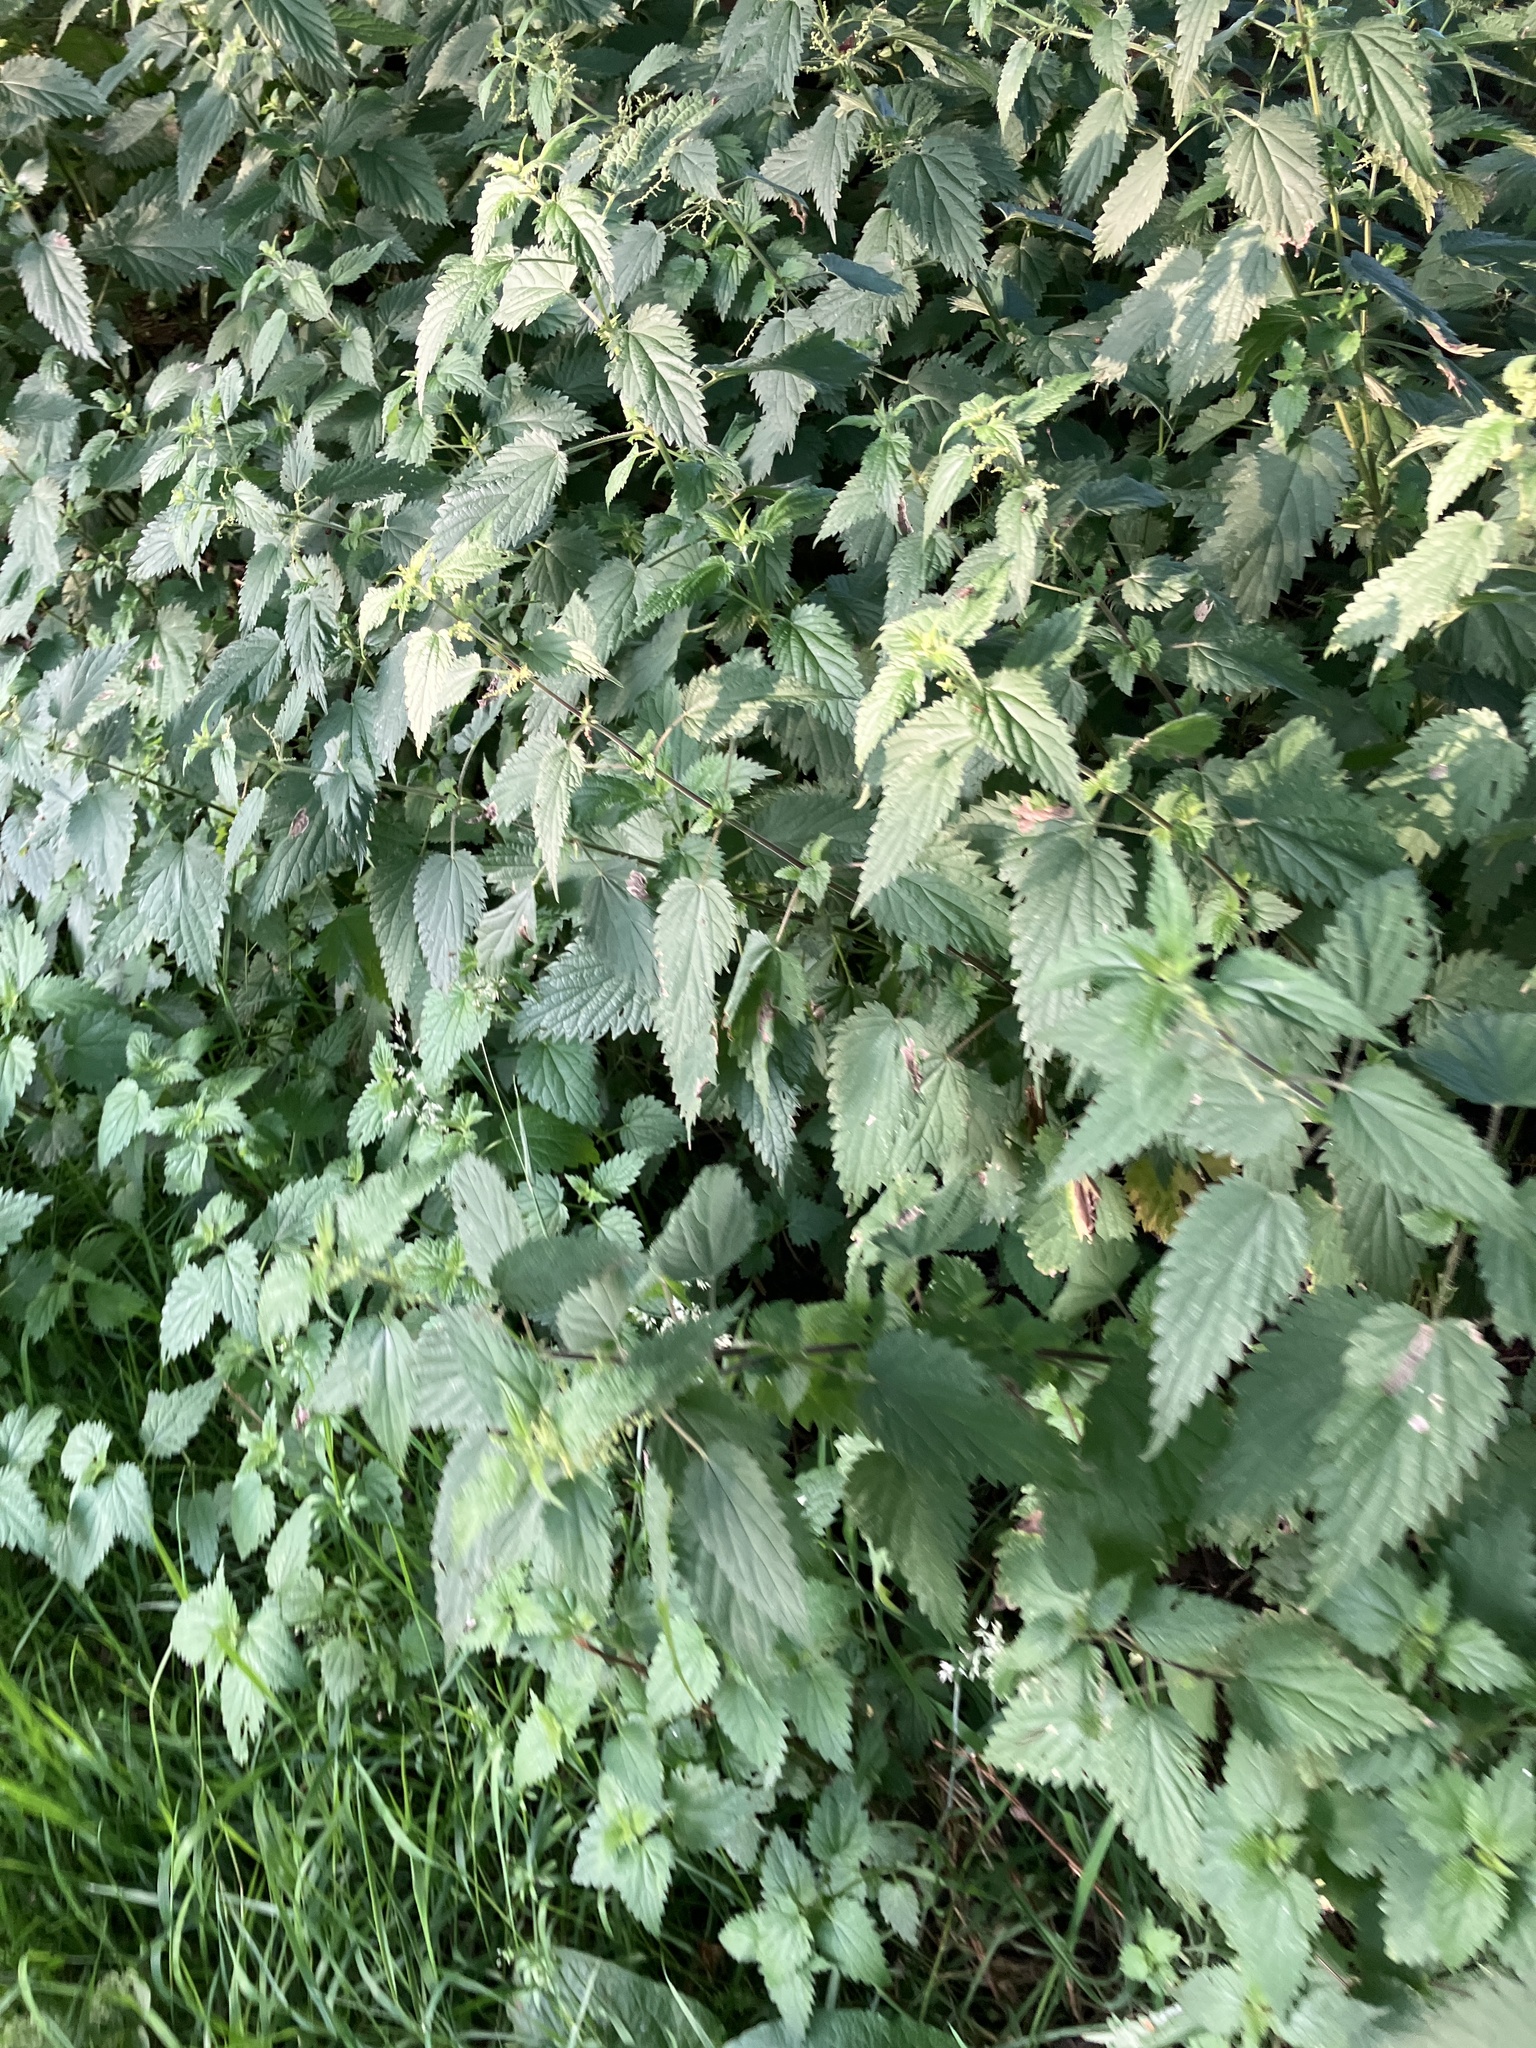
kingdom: Plantae
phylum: Tracheophyta
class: Magnoliopsida
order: Rosales
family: Urticaceae
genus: Urtica
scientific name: Urtica dioica
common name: Common nettle
